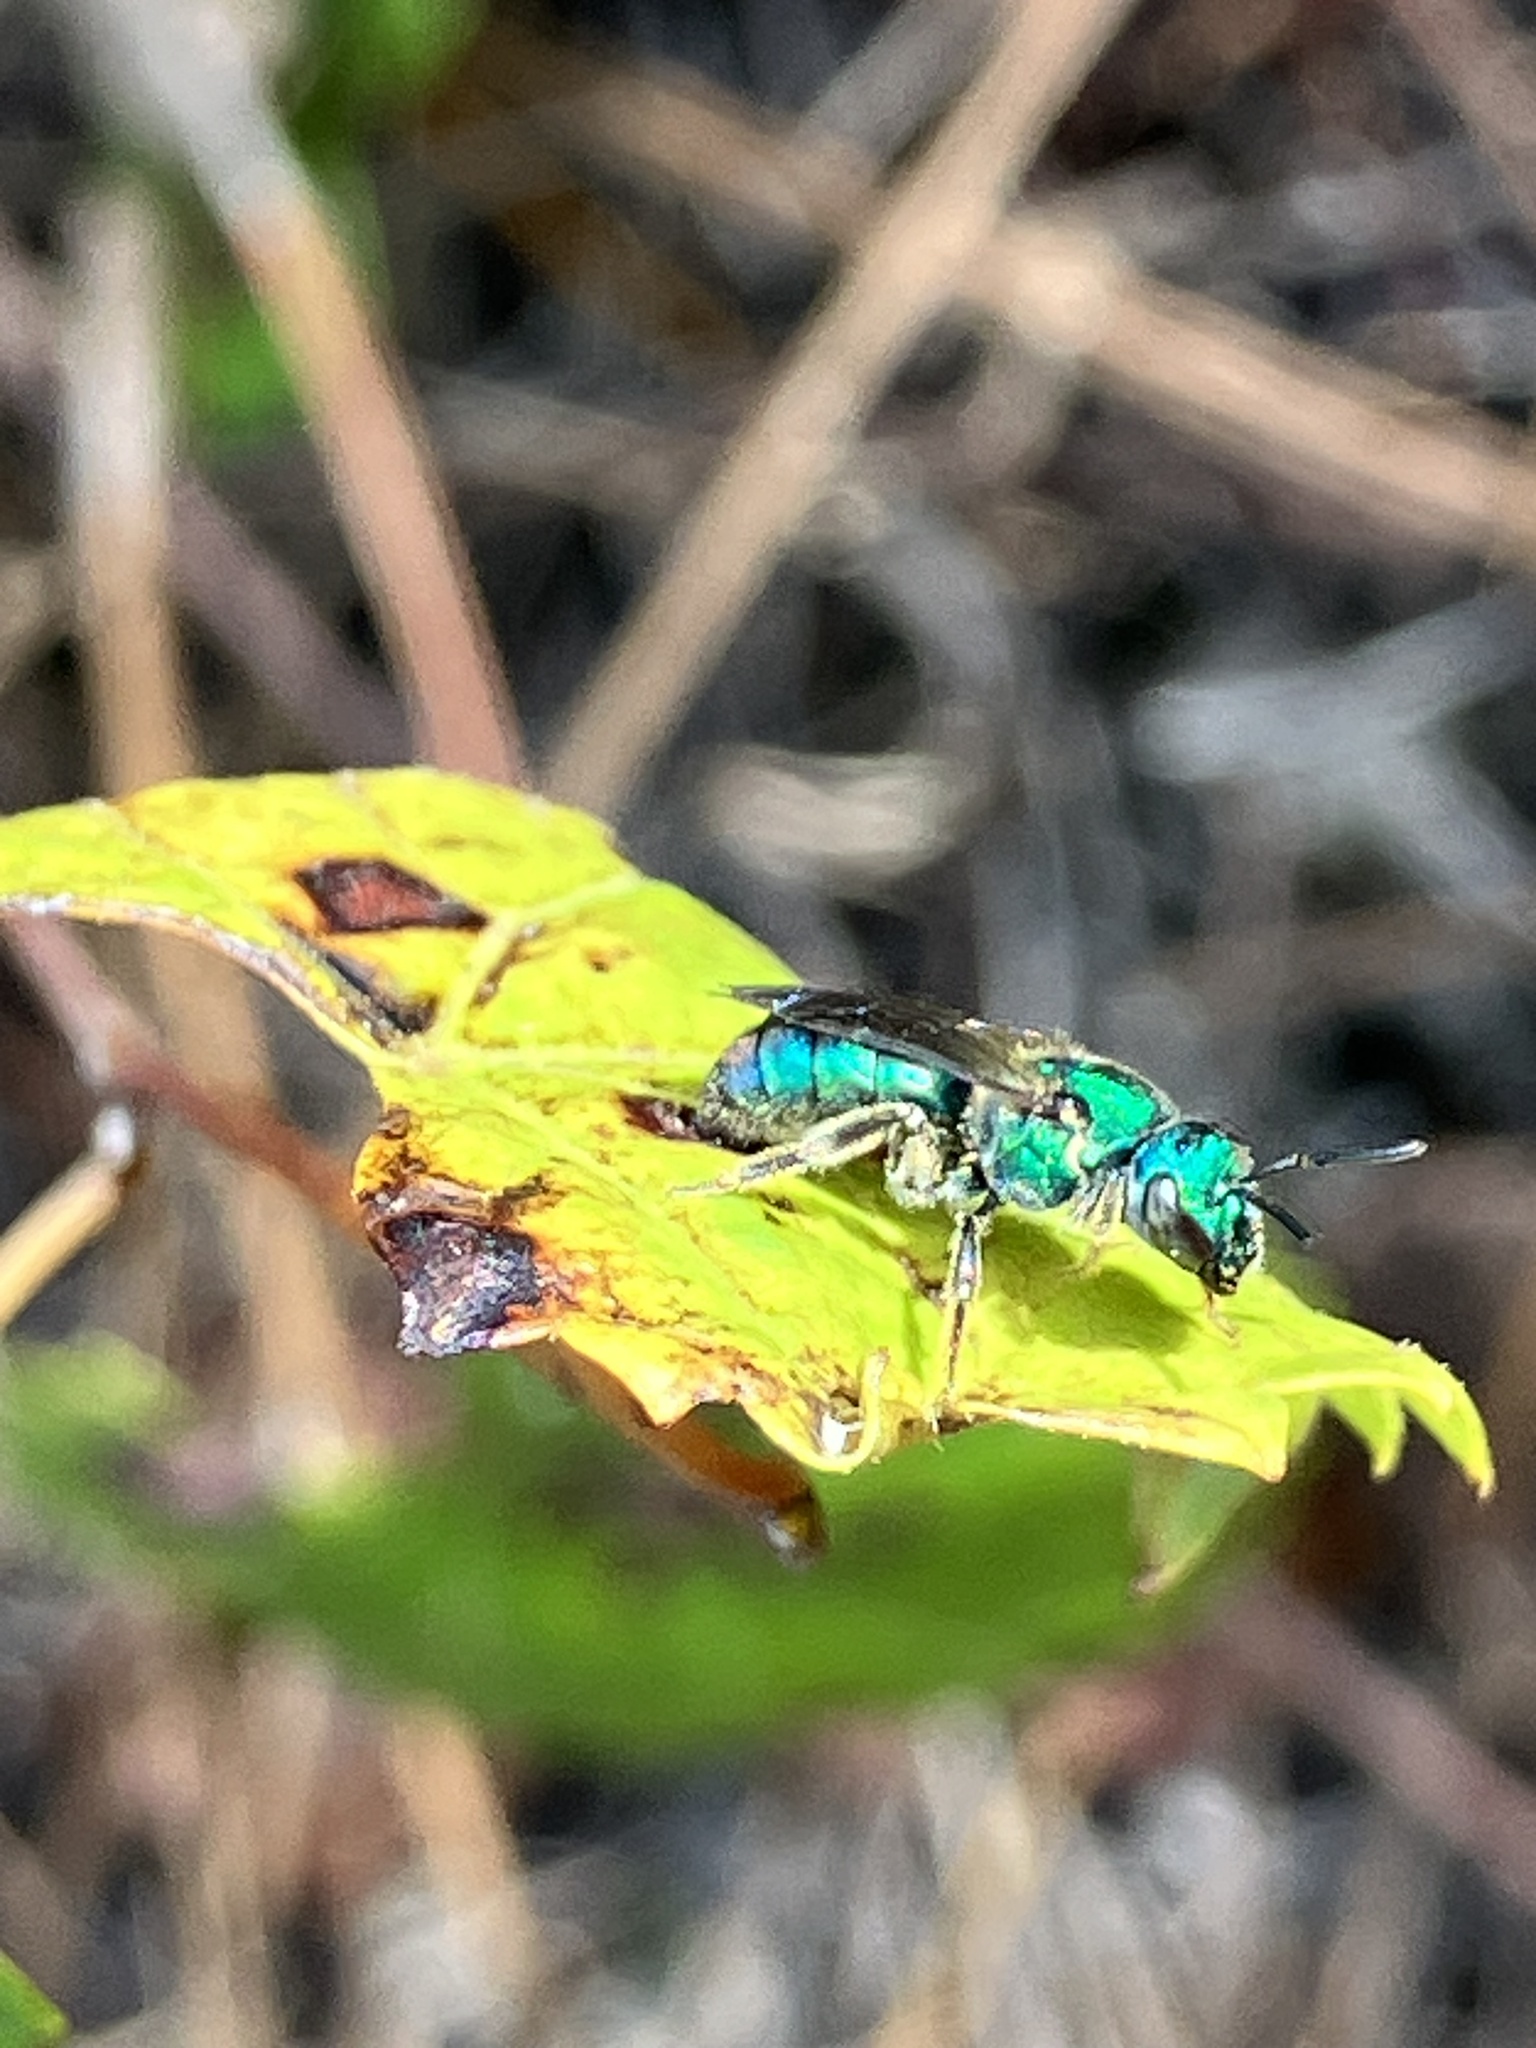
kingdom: Animalia
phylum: Arthropoda
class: Insecta
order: Hymenoptera
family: Halictidae
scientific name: Halictidae
